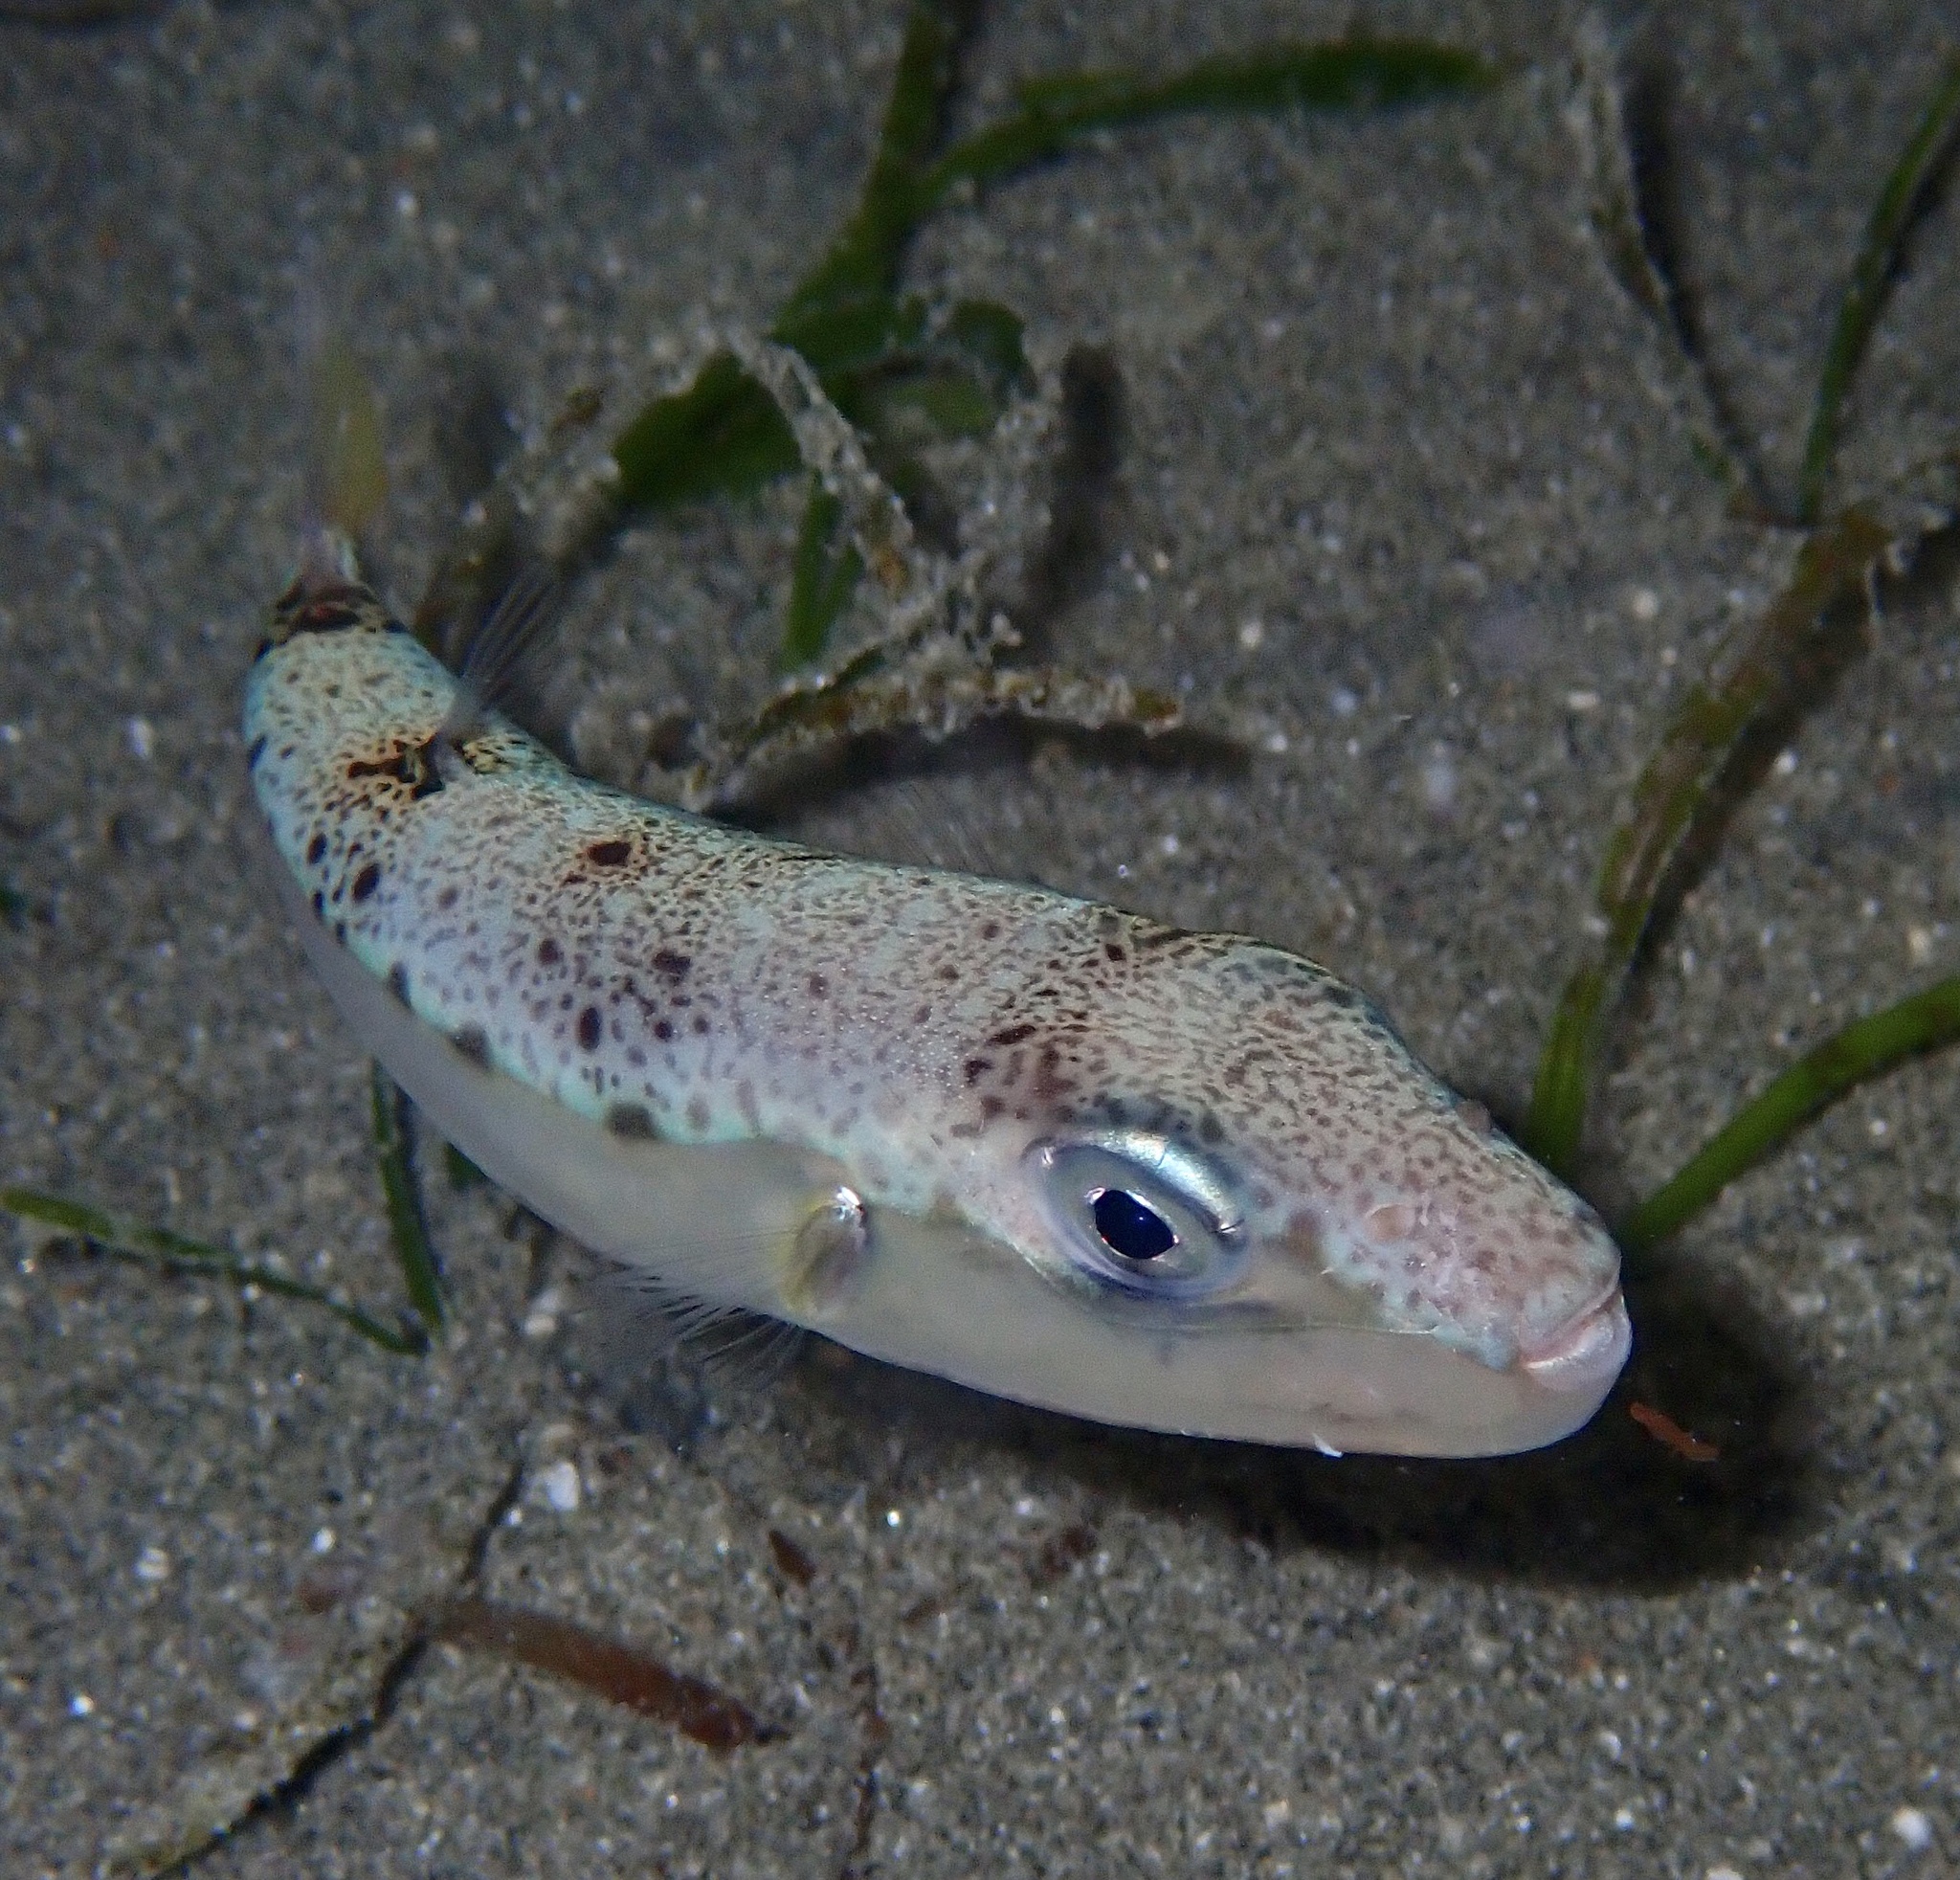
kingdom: Animalia
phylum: Chordata
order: Tetraodontiformes
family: Tetraodontidae
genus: Lagocephalus
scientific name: Lagocephalus suezensis
